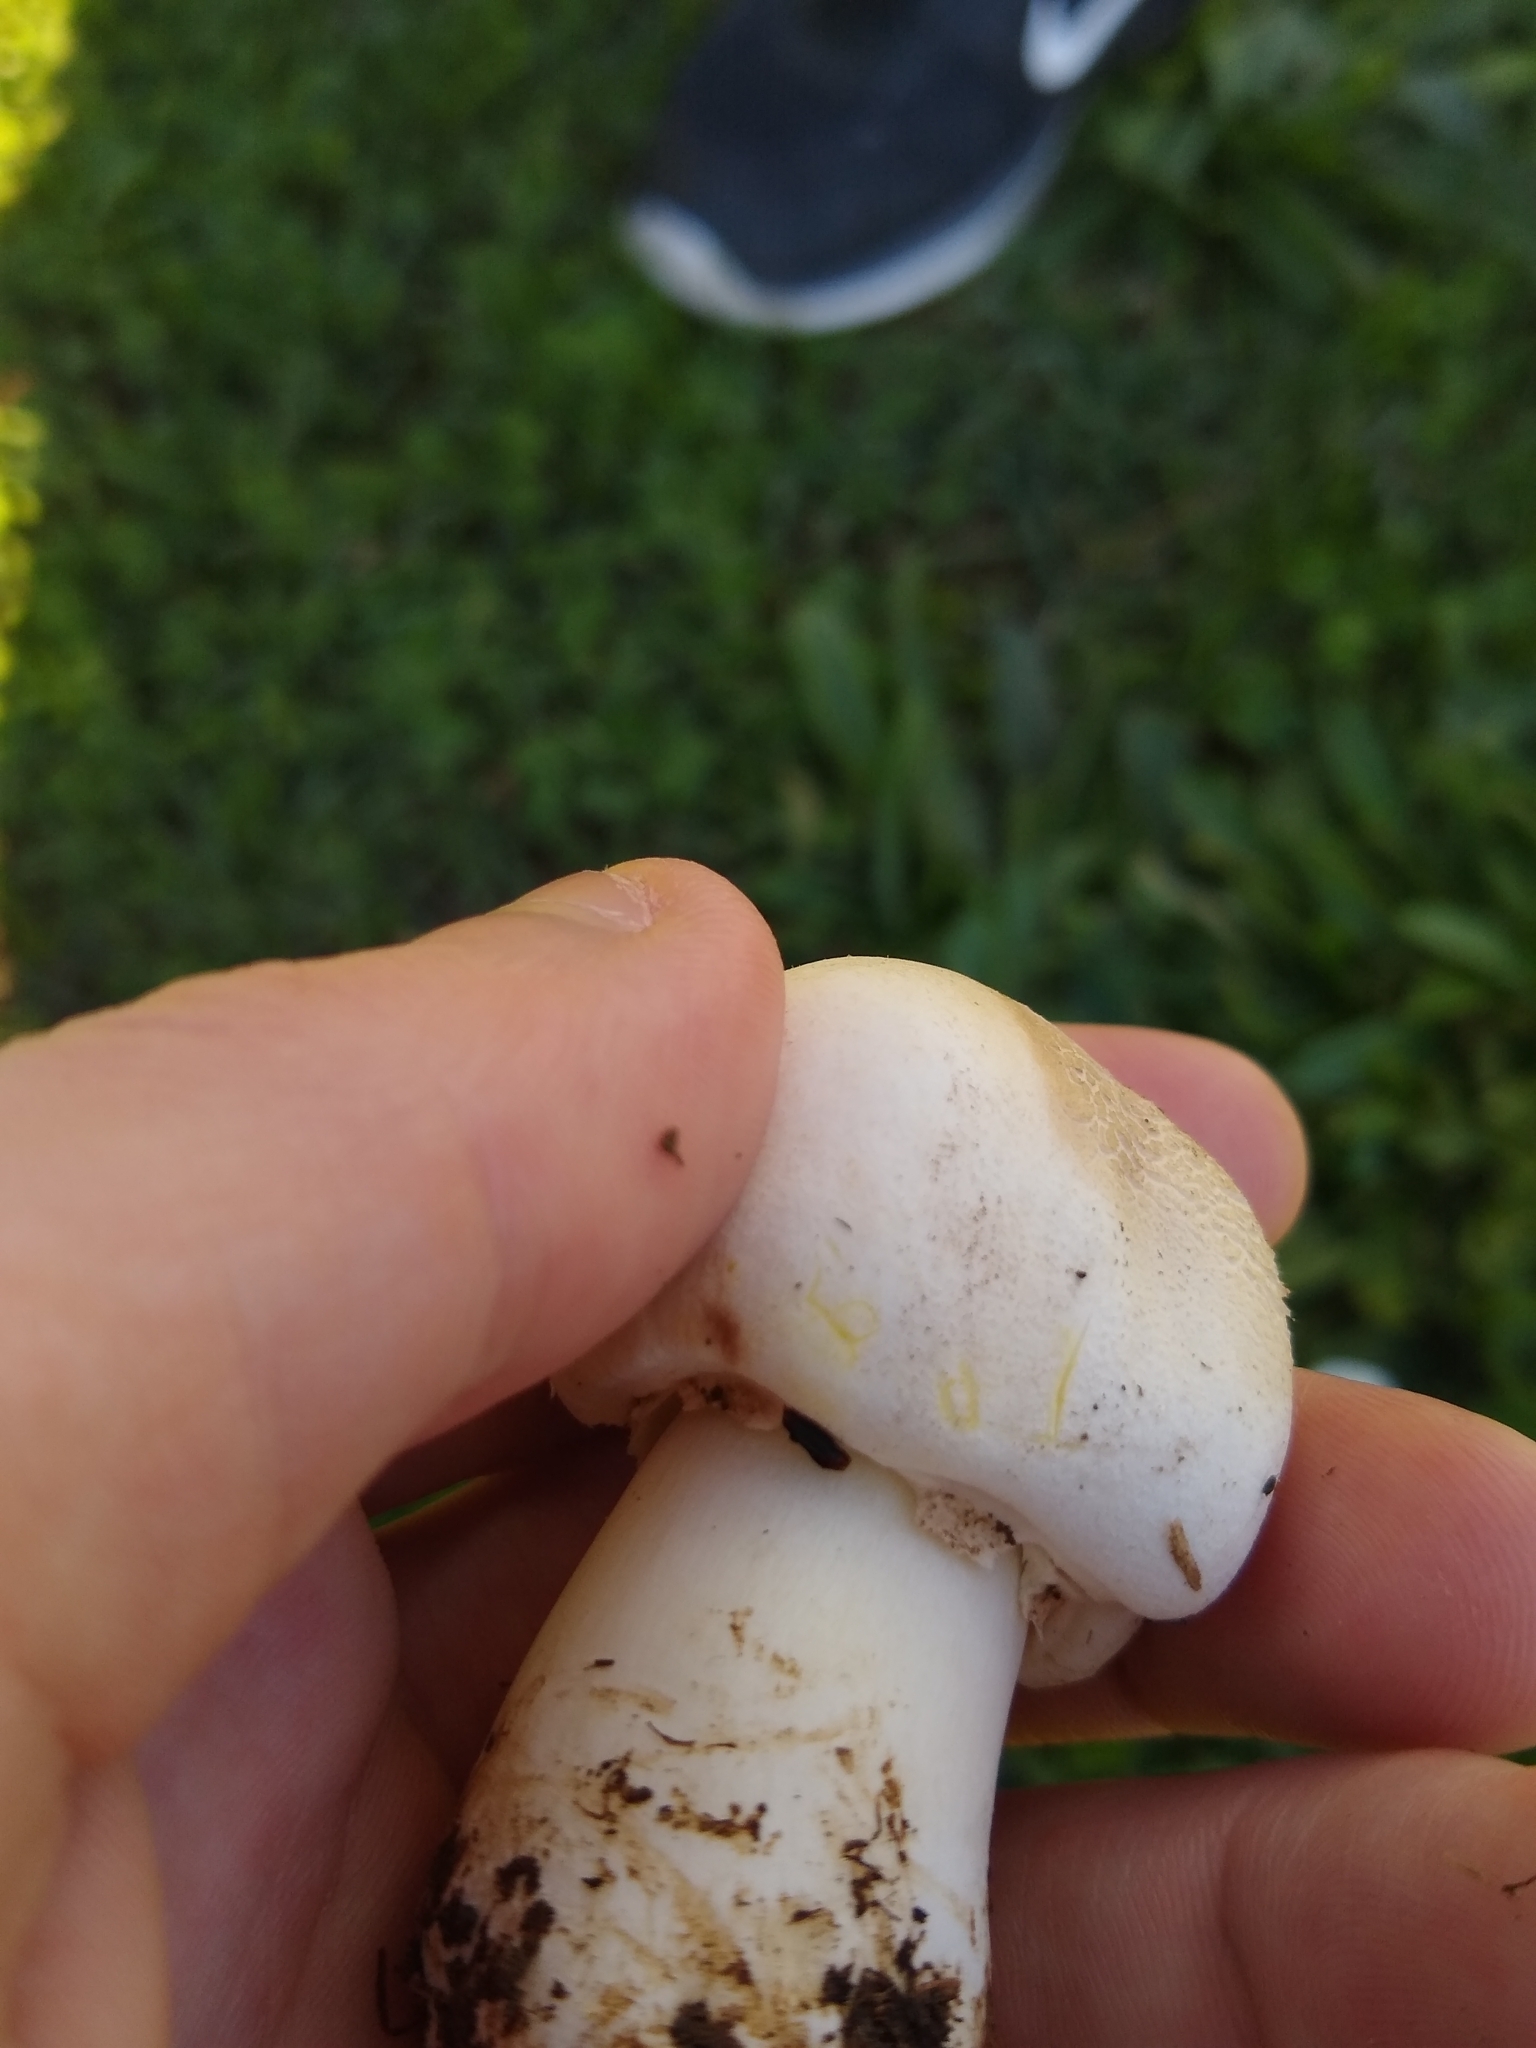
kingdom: Fungi
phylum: Basidiomycota
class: Agaricomycetes
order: Agaricales
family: Agaricaceae
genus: Agaricus
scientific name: Agaricus xanthodermus
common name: Yellow stainer
